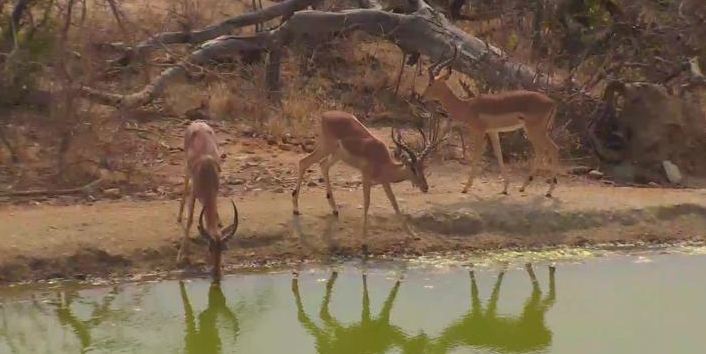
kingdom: Animalia
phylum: Chordata
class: Mammalia
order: Artiodactyla
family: Bovidae
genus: Aepyceros
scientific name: Aepyceros melampus
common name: Impala
